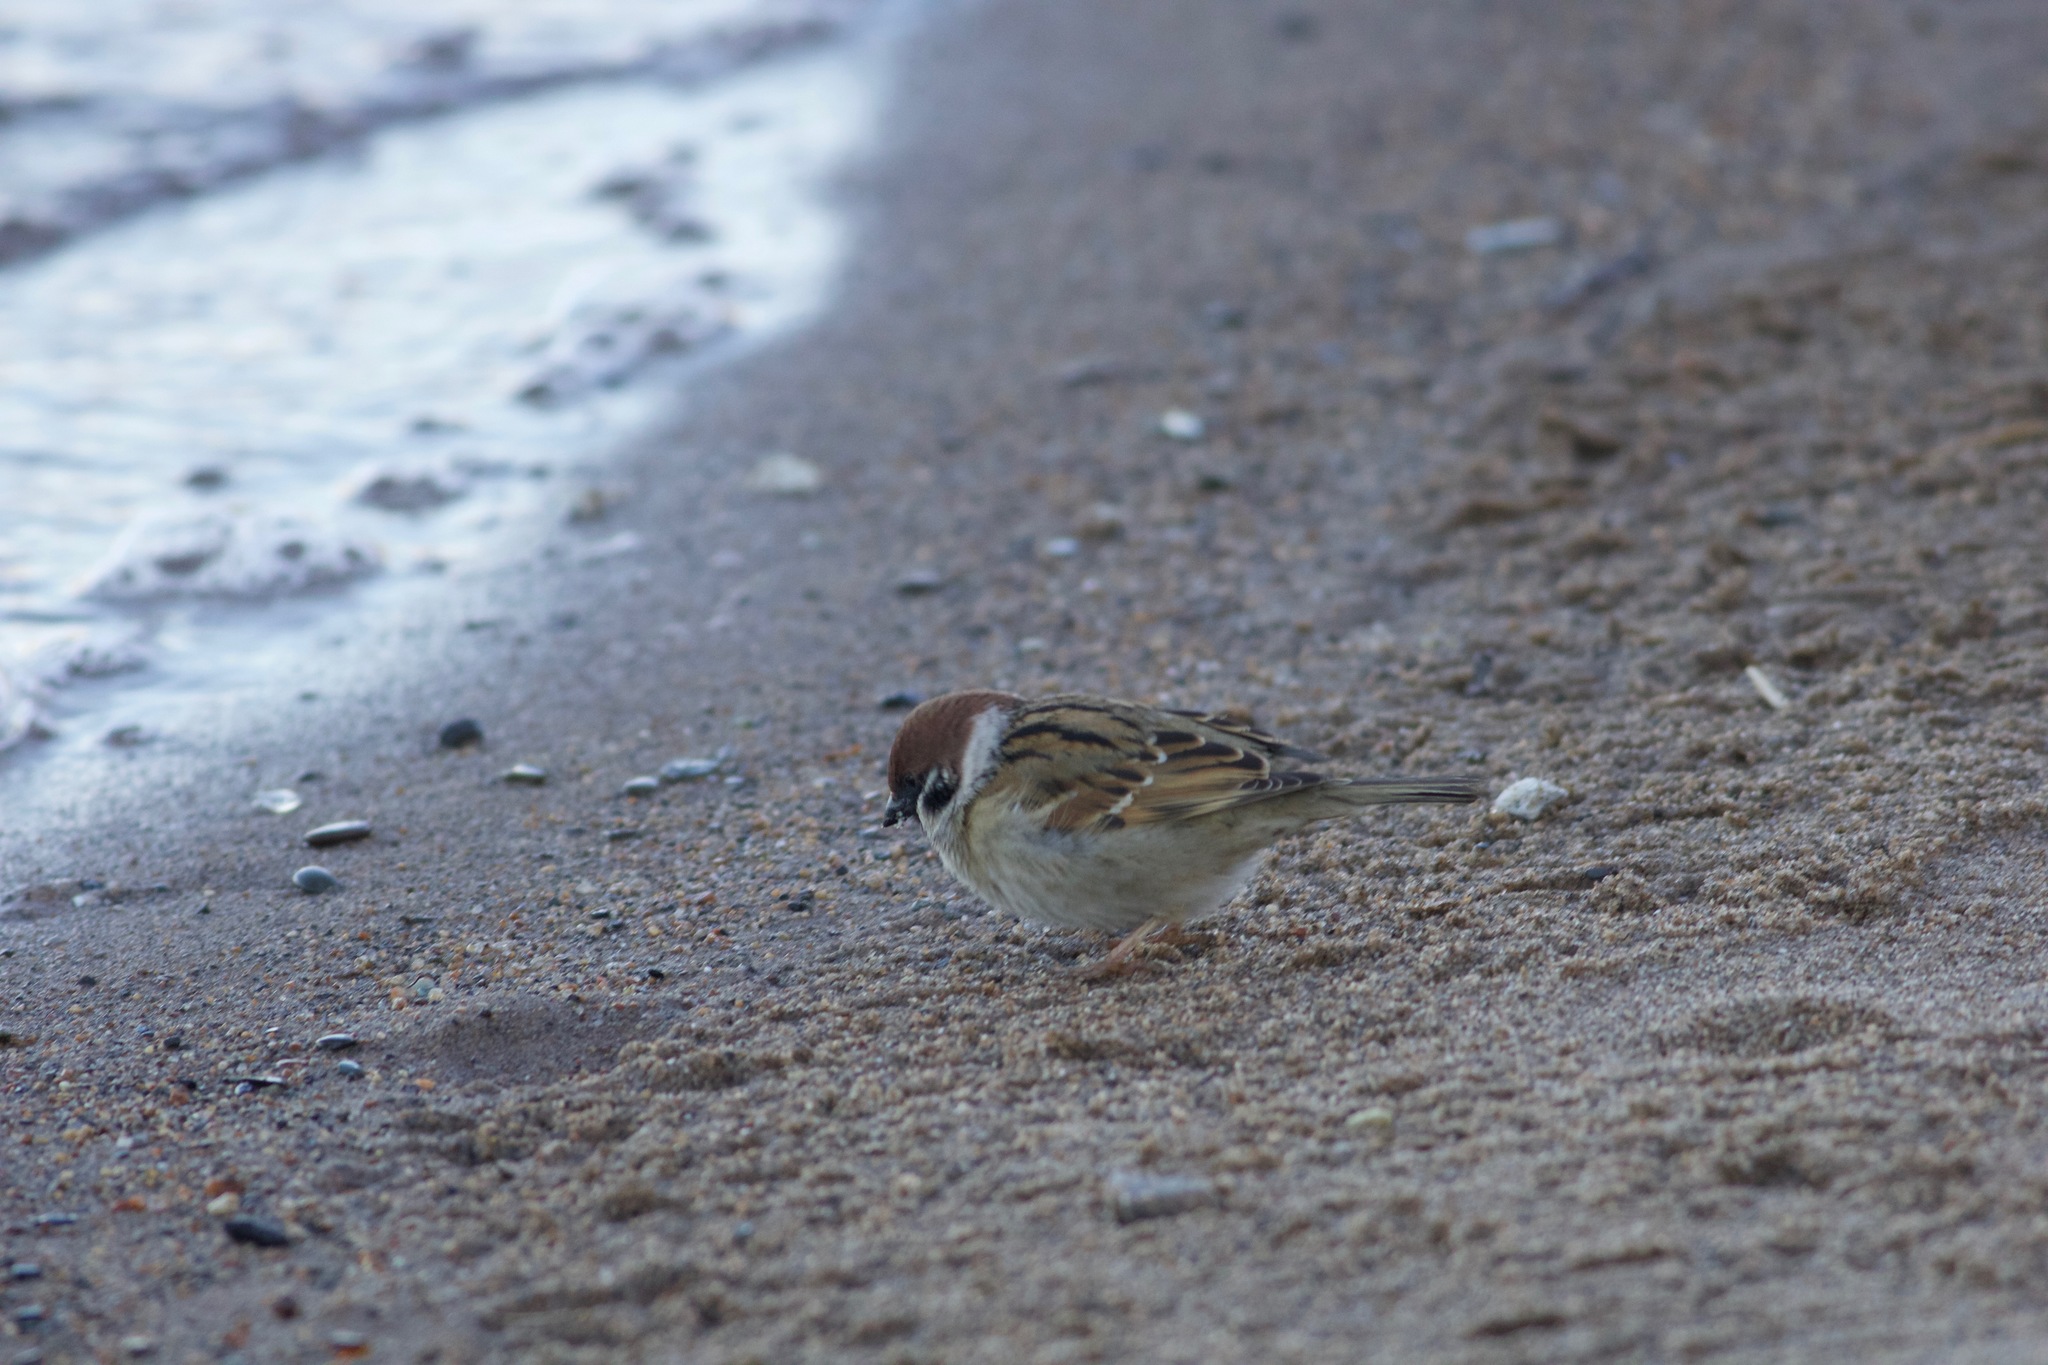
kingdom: Animalia
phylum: Chordata
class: Aves
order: Passeriformes
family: Passeridae
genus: Passer
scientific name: Passer montanus
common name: Eurasian tree sparrow
